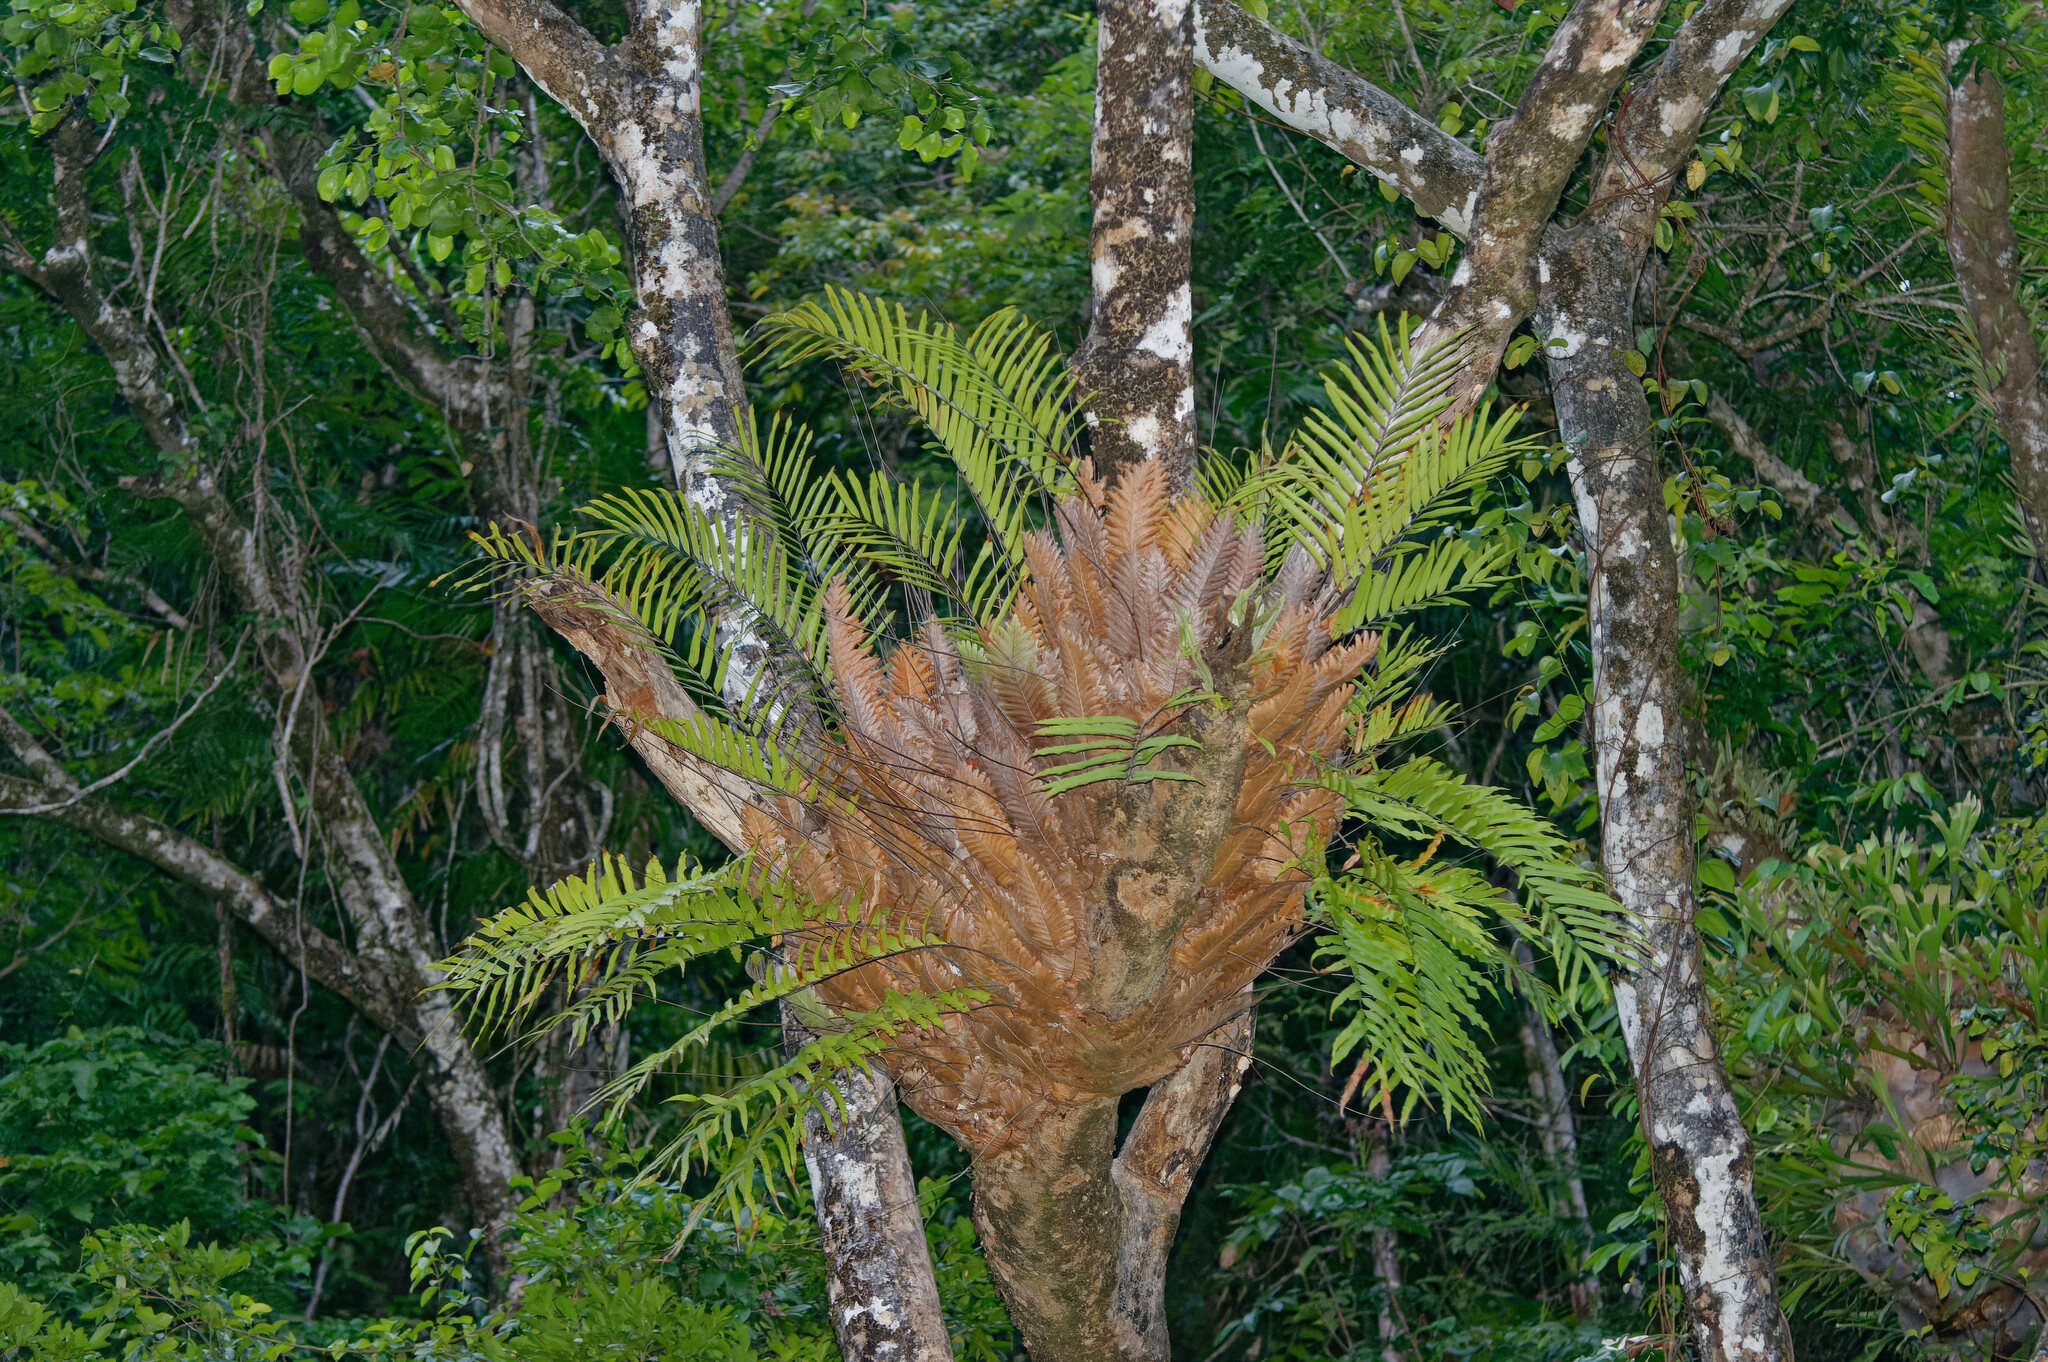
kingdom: Plantae
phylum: Tracheophyta
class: Polypodiopsida
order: Polypodiales
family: Polypodiaceae
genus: Drynaria
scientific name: Drynaria rigidula
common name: Basket fern
